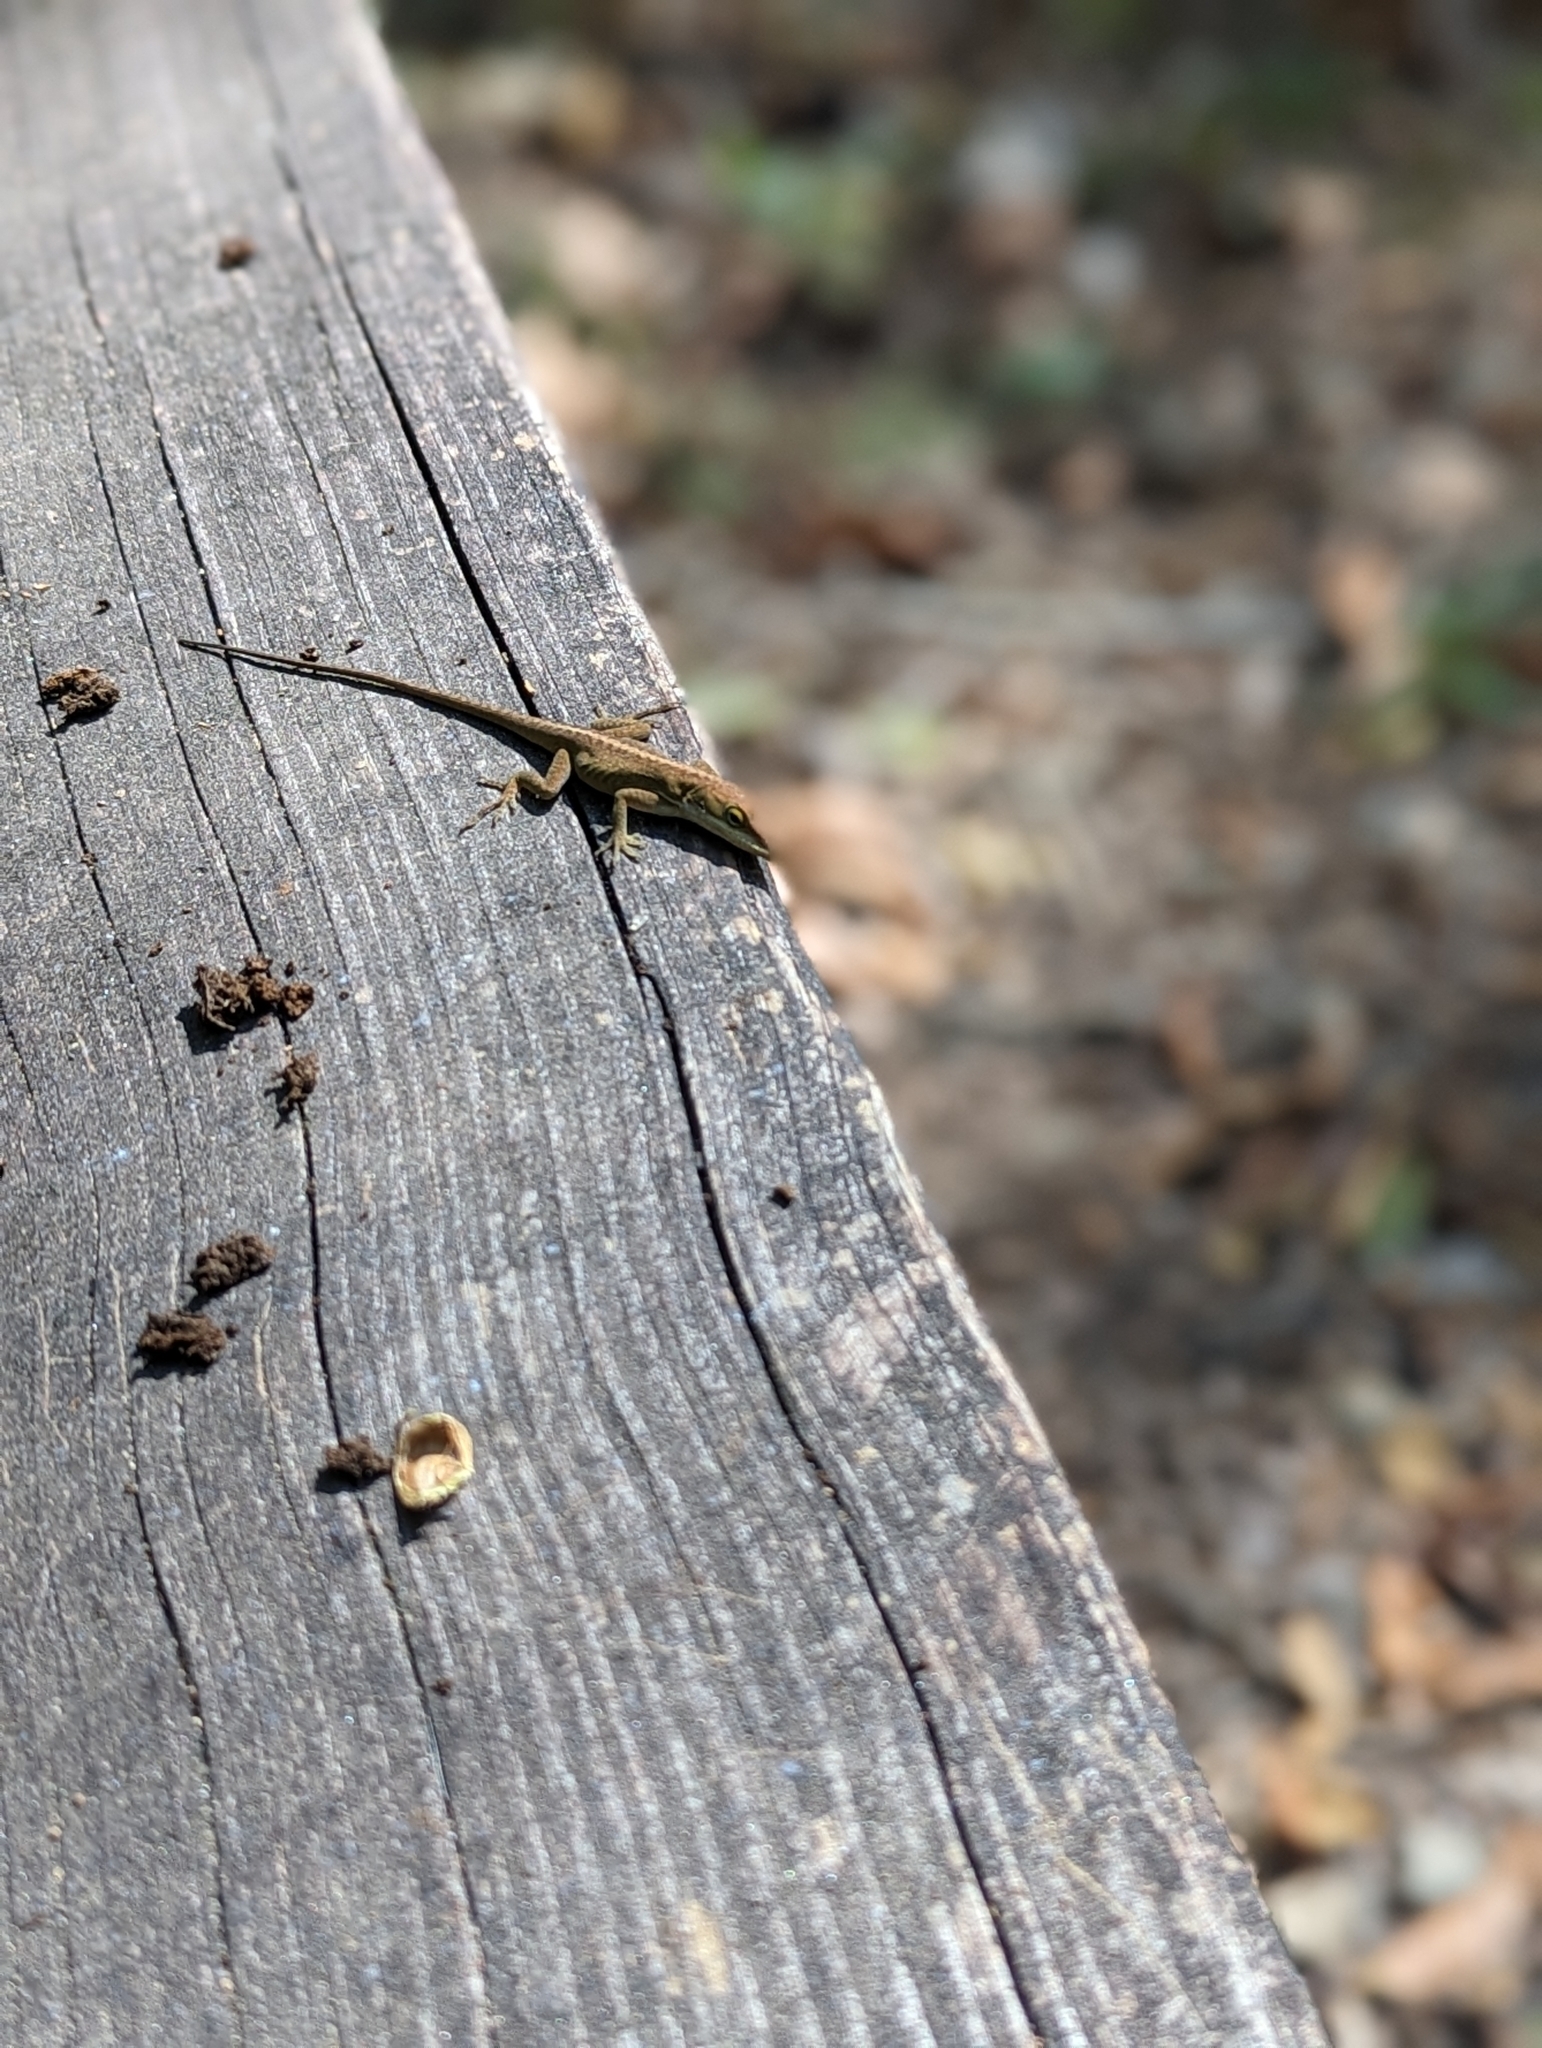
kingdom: Animalia
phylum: Chordata
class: Squamata
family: Dactyloidae
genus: Anolis
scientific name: Anolis carolinensis
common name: Green anole
